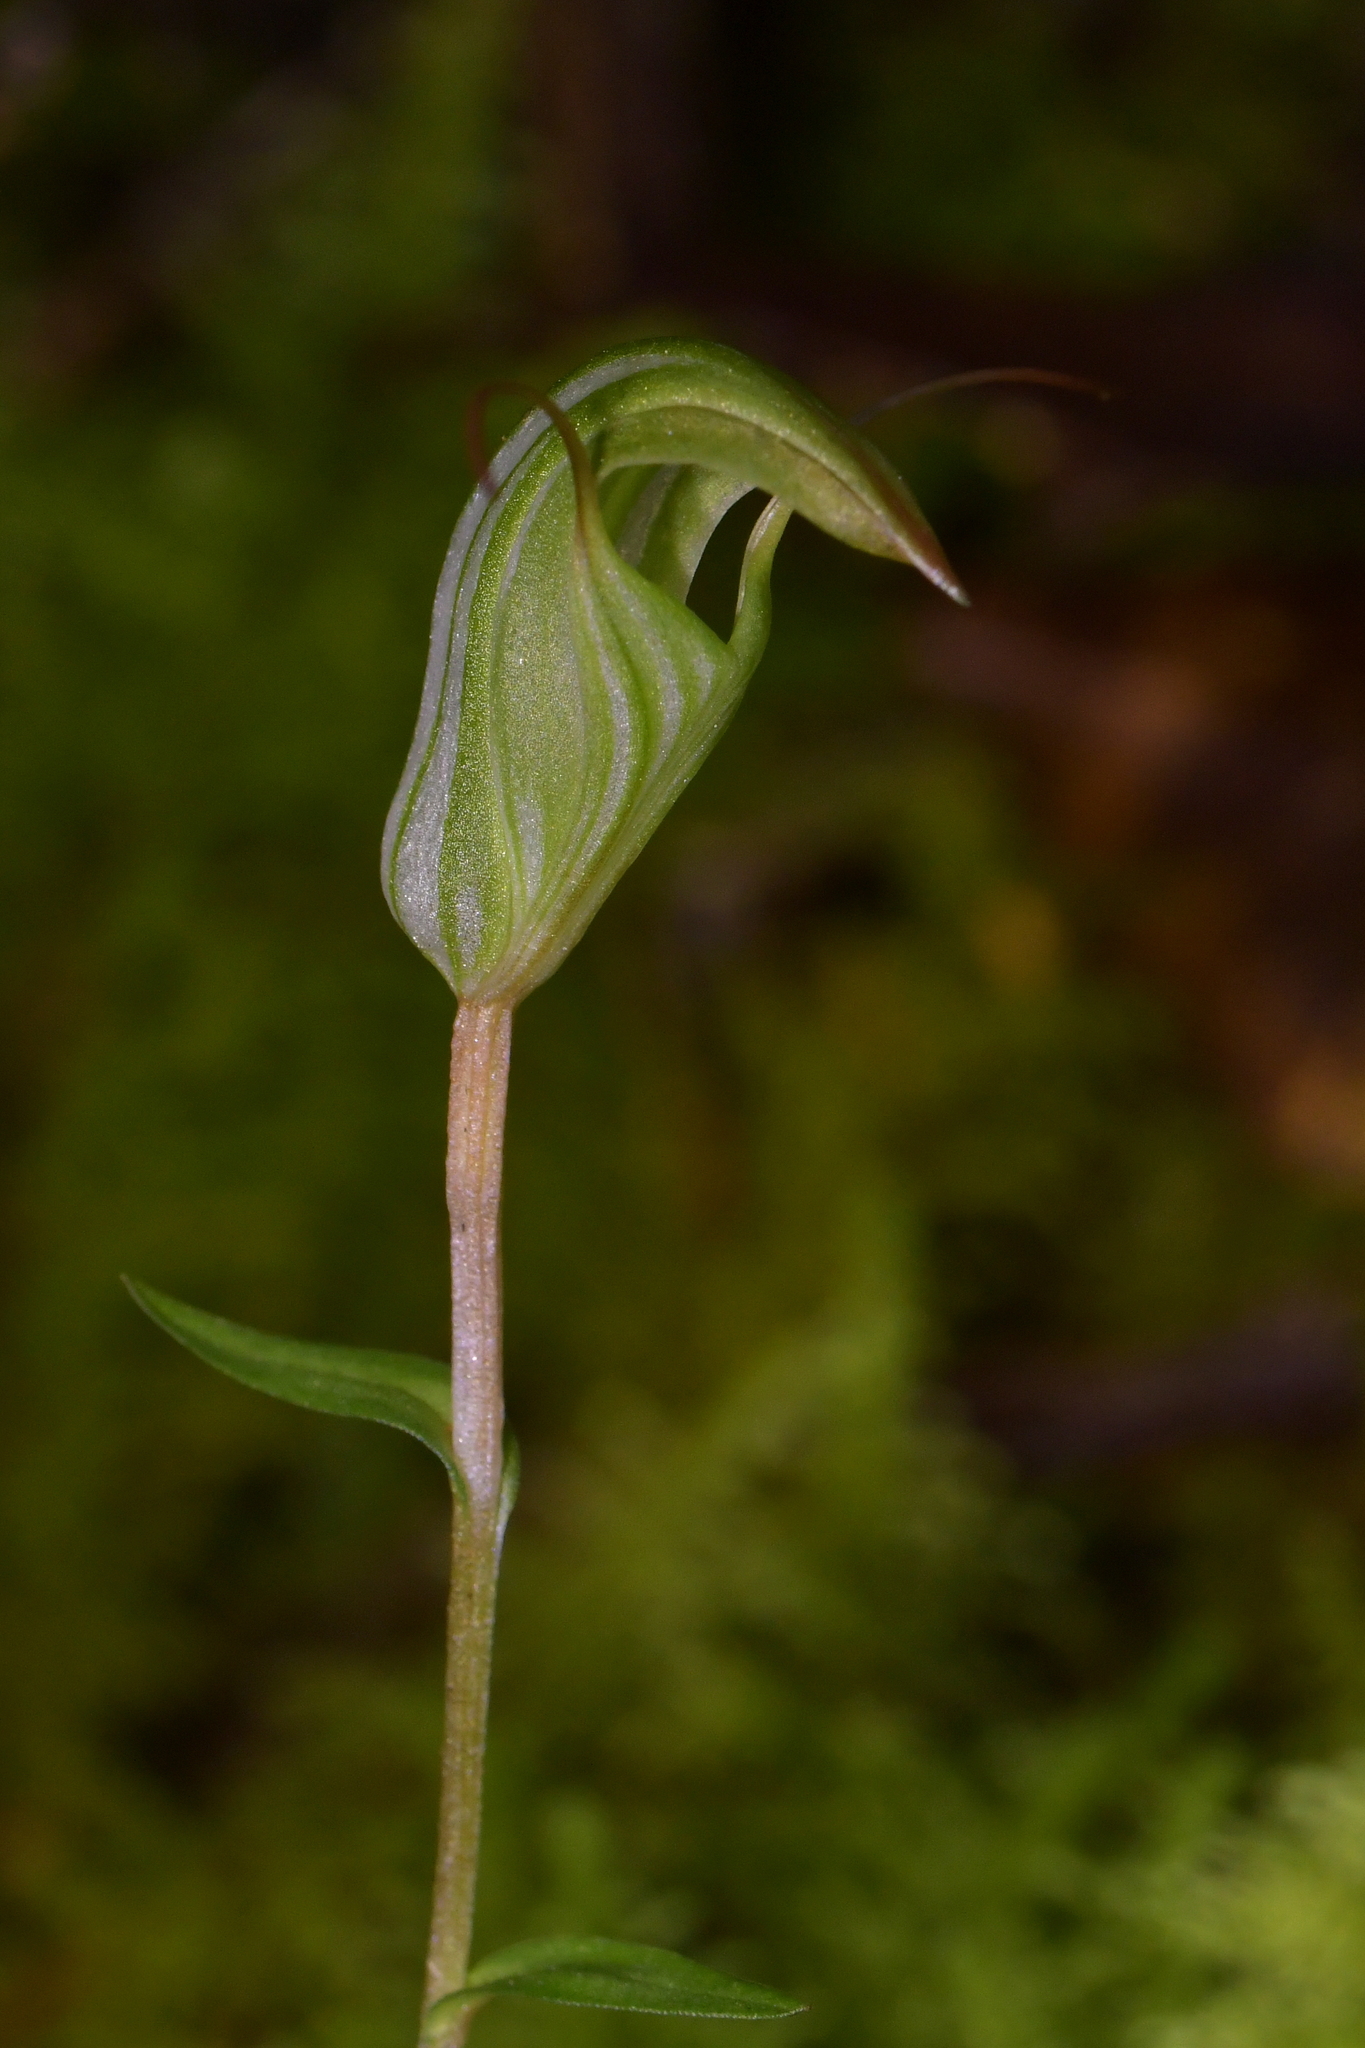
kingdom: Plantae
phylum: Tracheophyta
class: Liliopsida
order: Asparagales
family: Orchidaceae
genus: Pterostylis
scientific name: Pterostylis alobula
